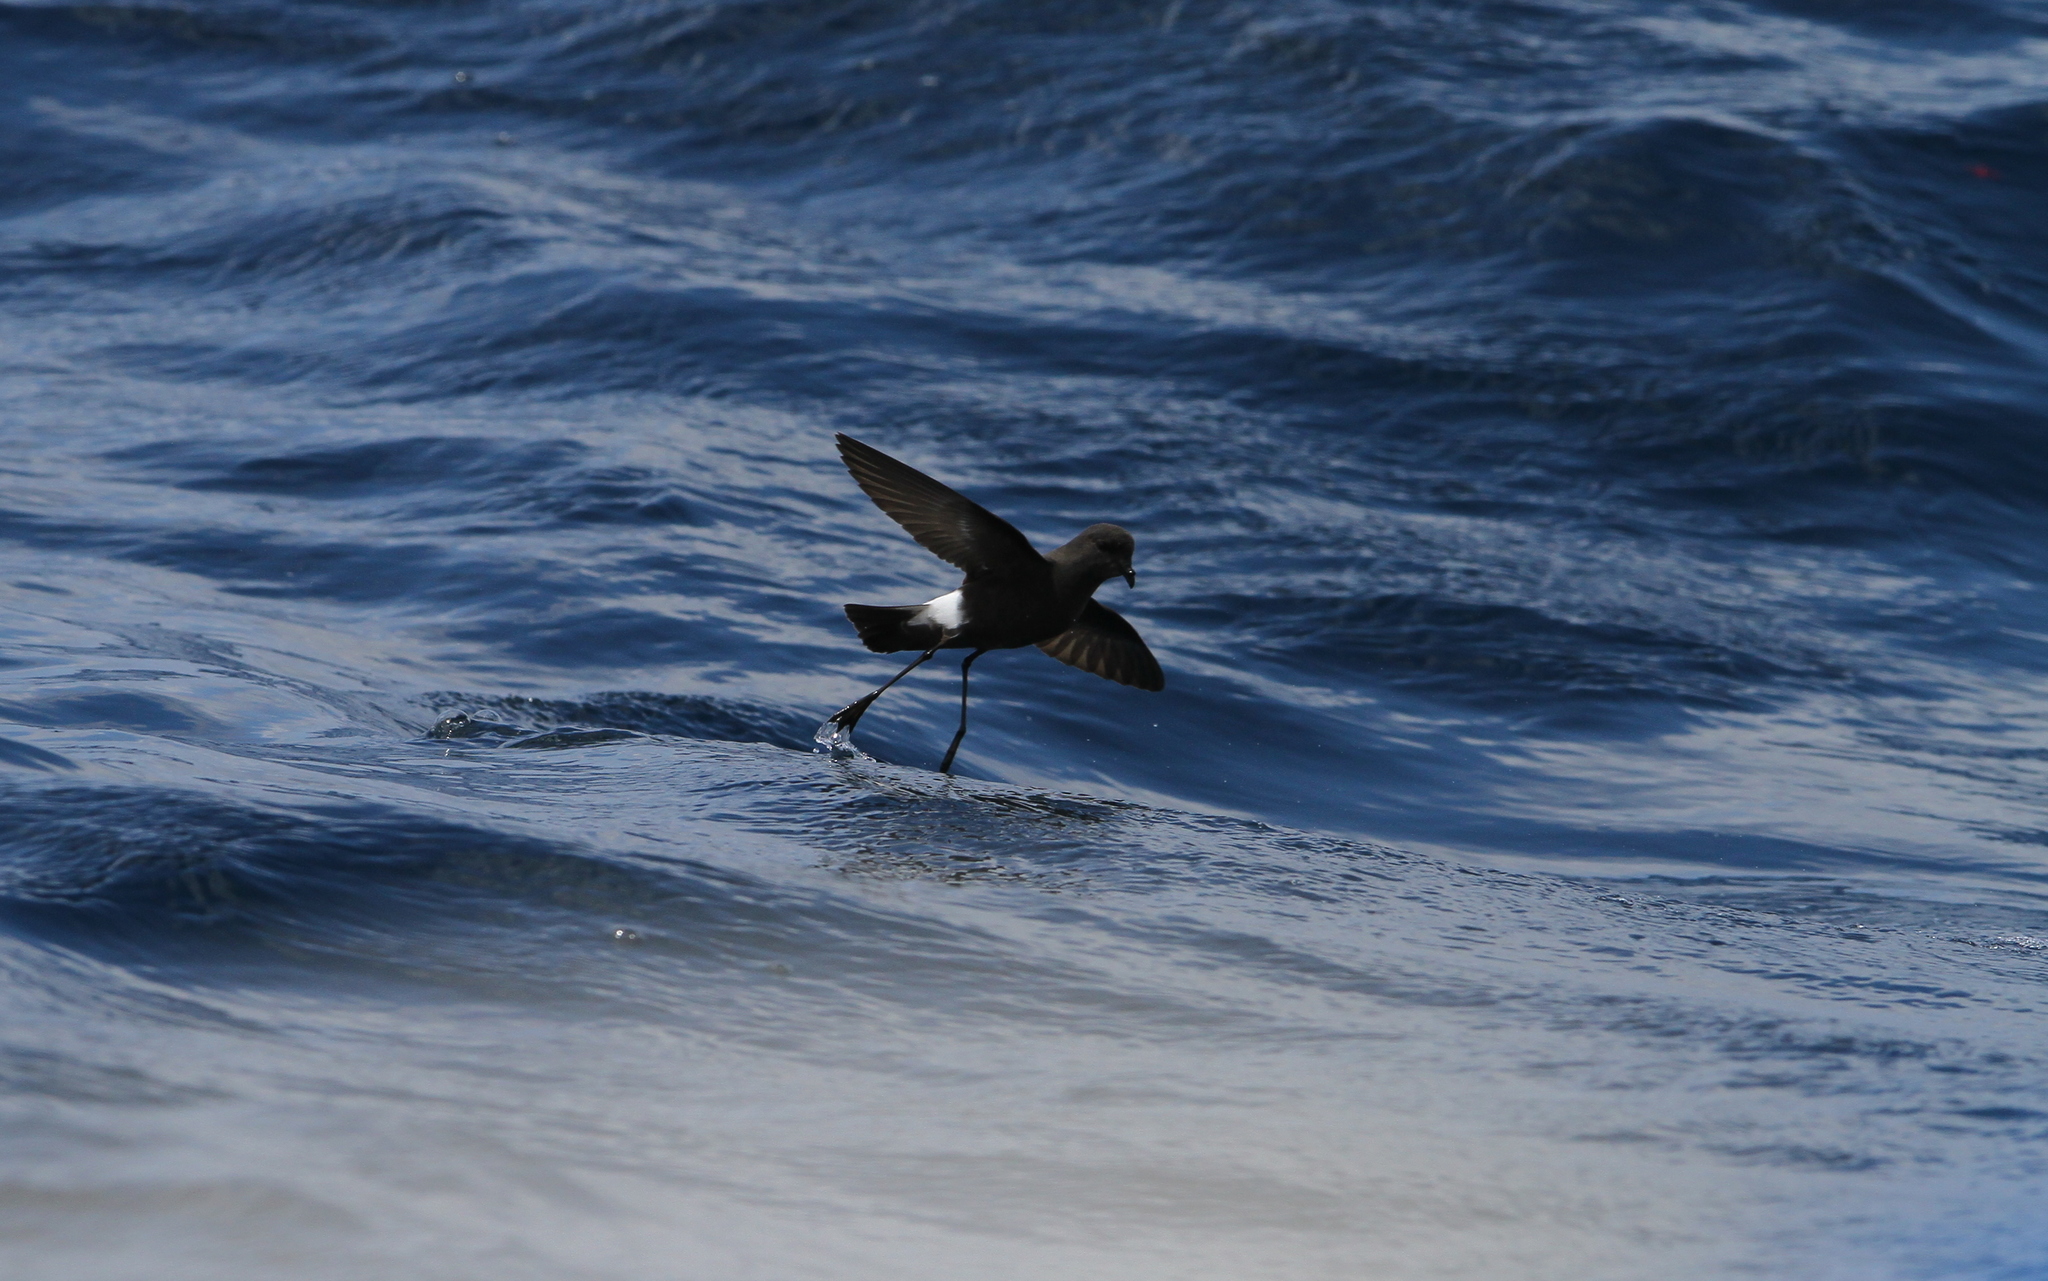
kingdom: Animalia
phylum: Chordata
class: Aves
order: Procellariiformes
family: Hydrobatidae
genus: Oceanites
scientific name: Oceanites oceanicus
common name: Wilson's storm petrel
